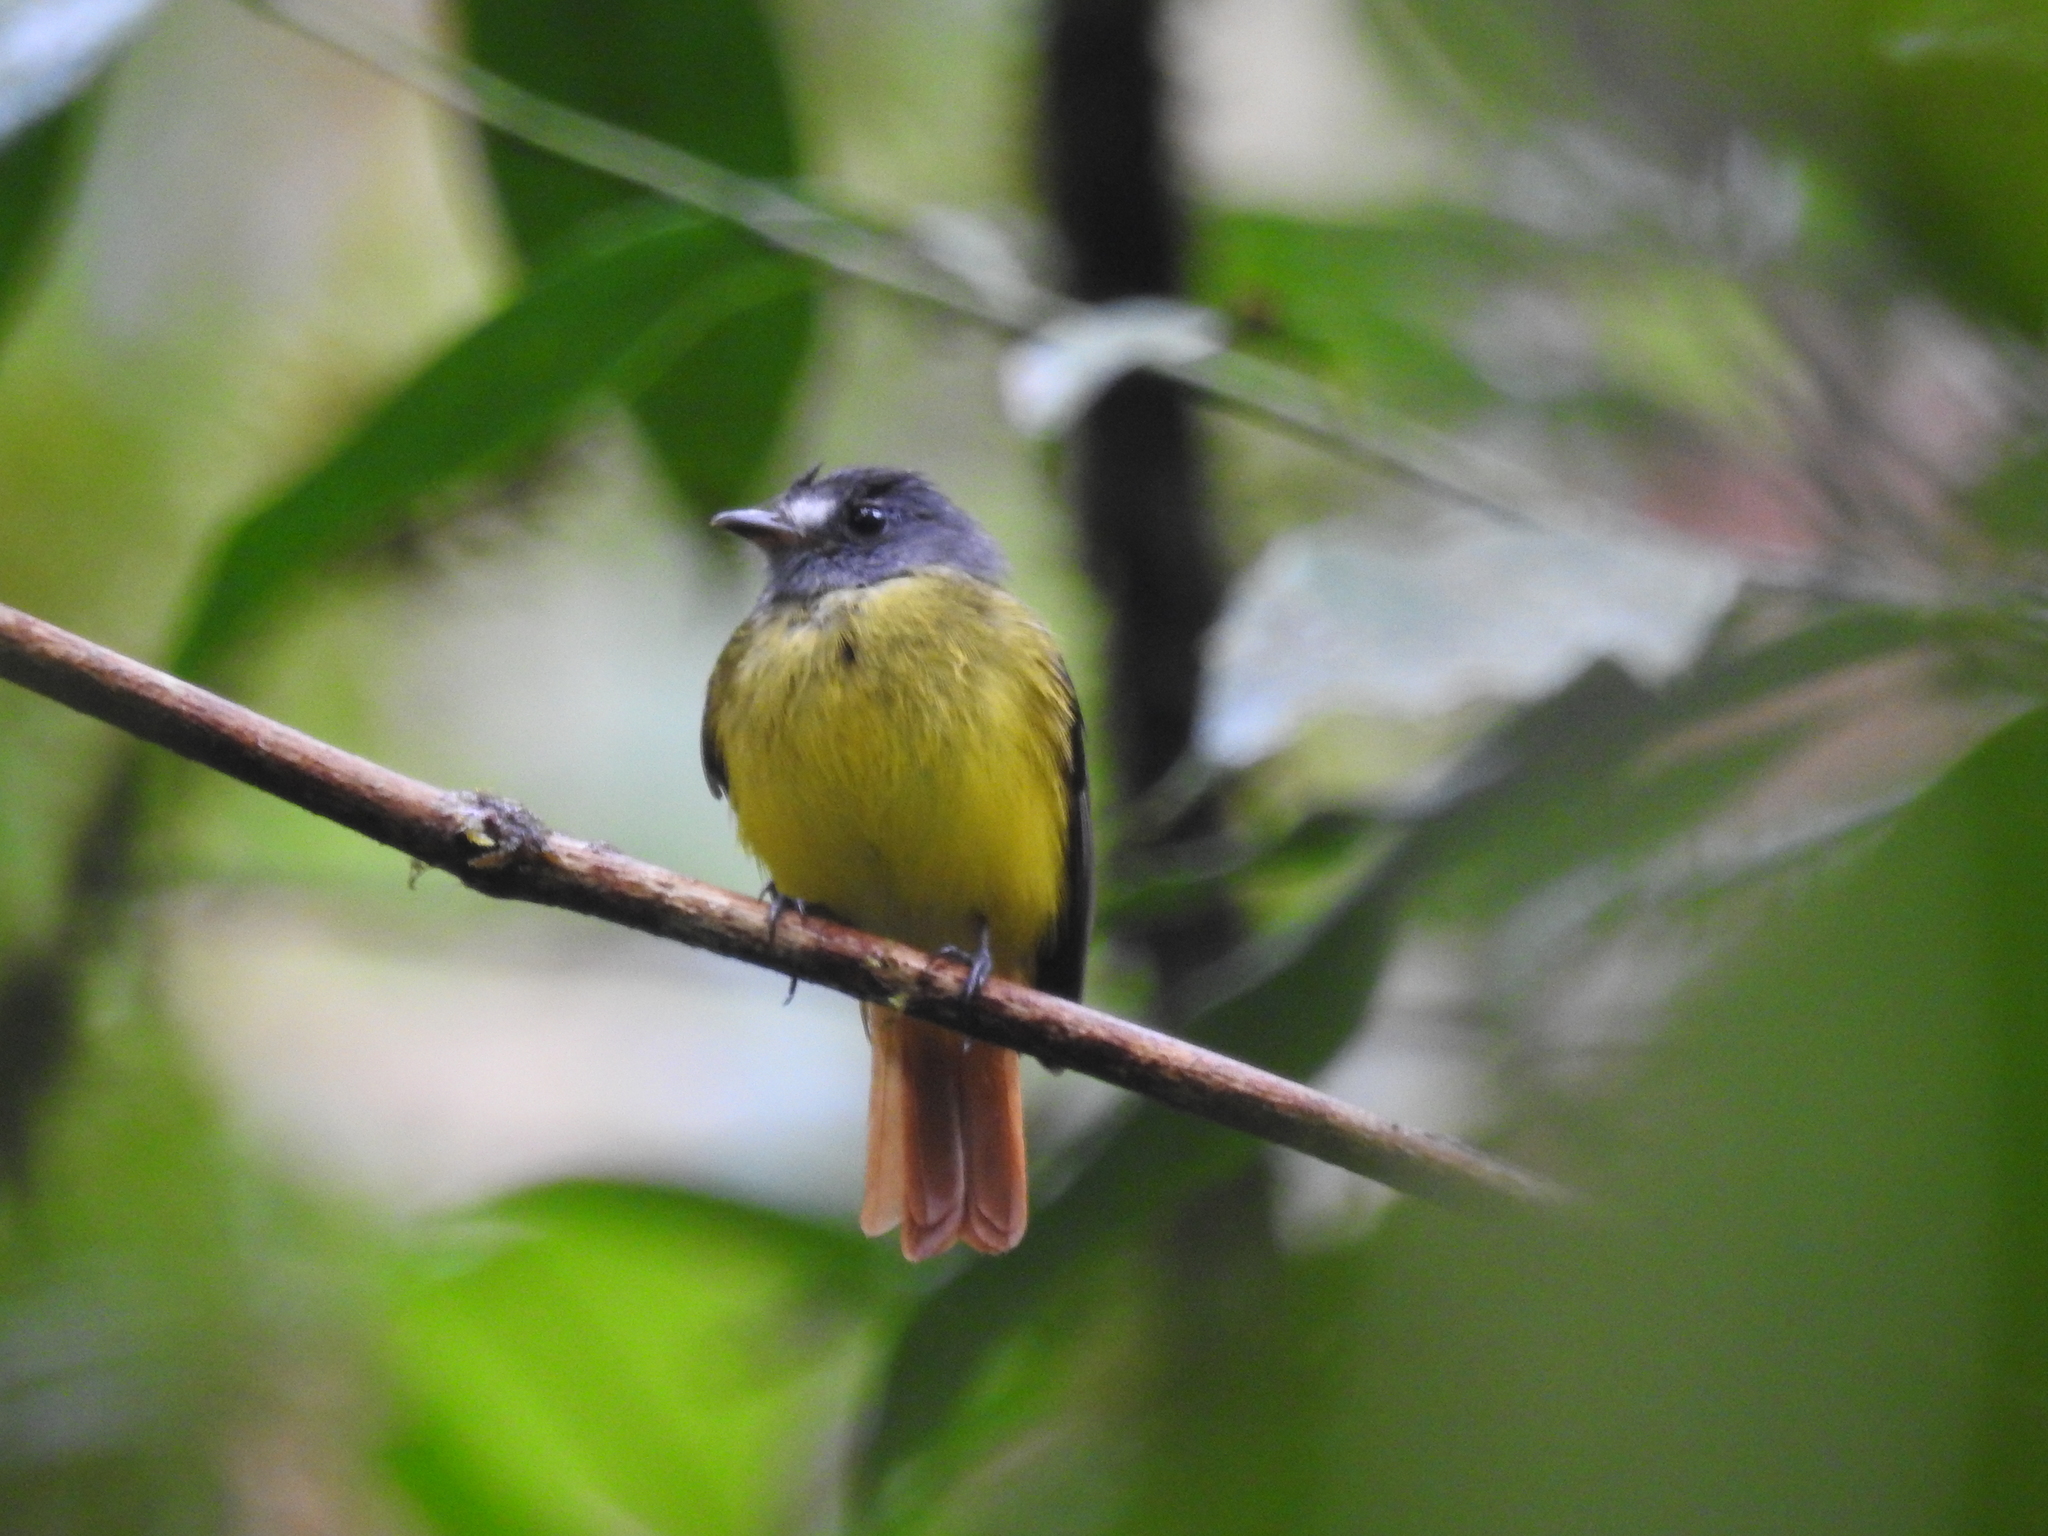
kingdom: Animalia
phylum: Chordata
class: Aves
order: Passeriformes
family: Tyrannidae
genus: Myiotriccus
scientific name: Myiotriccus ornatus
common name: Ornate flycatcher
